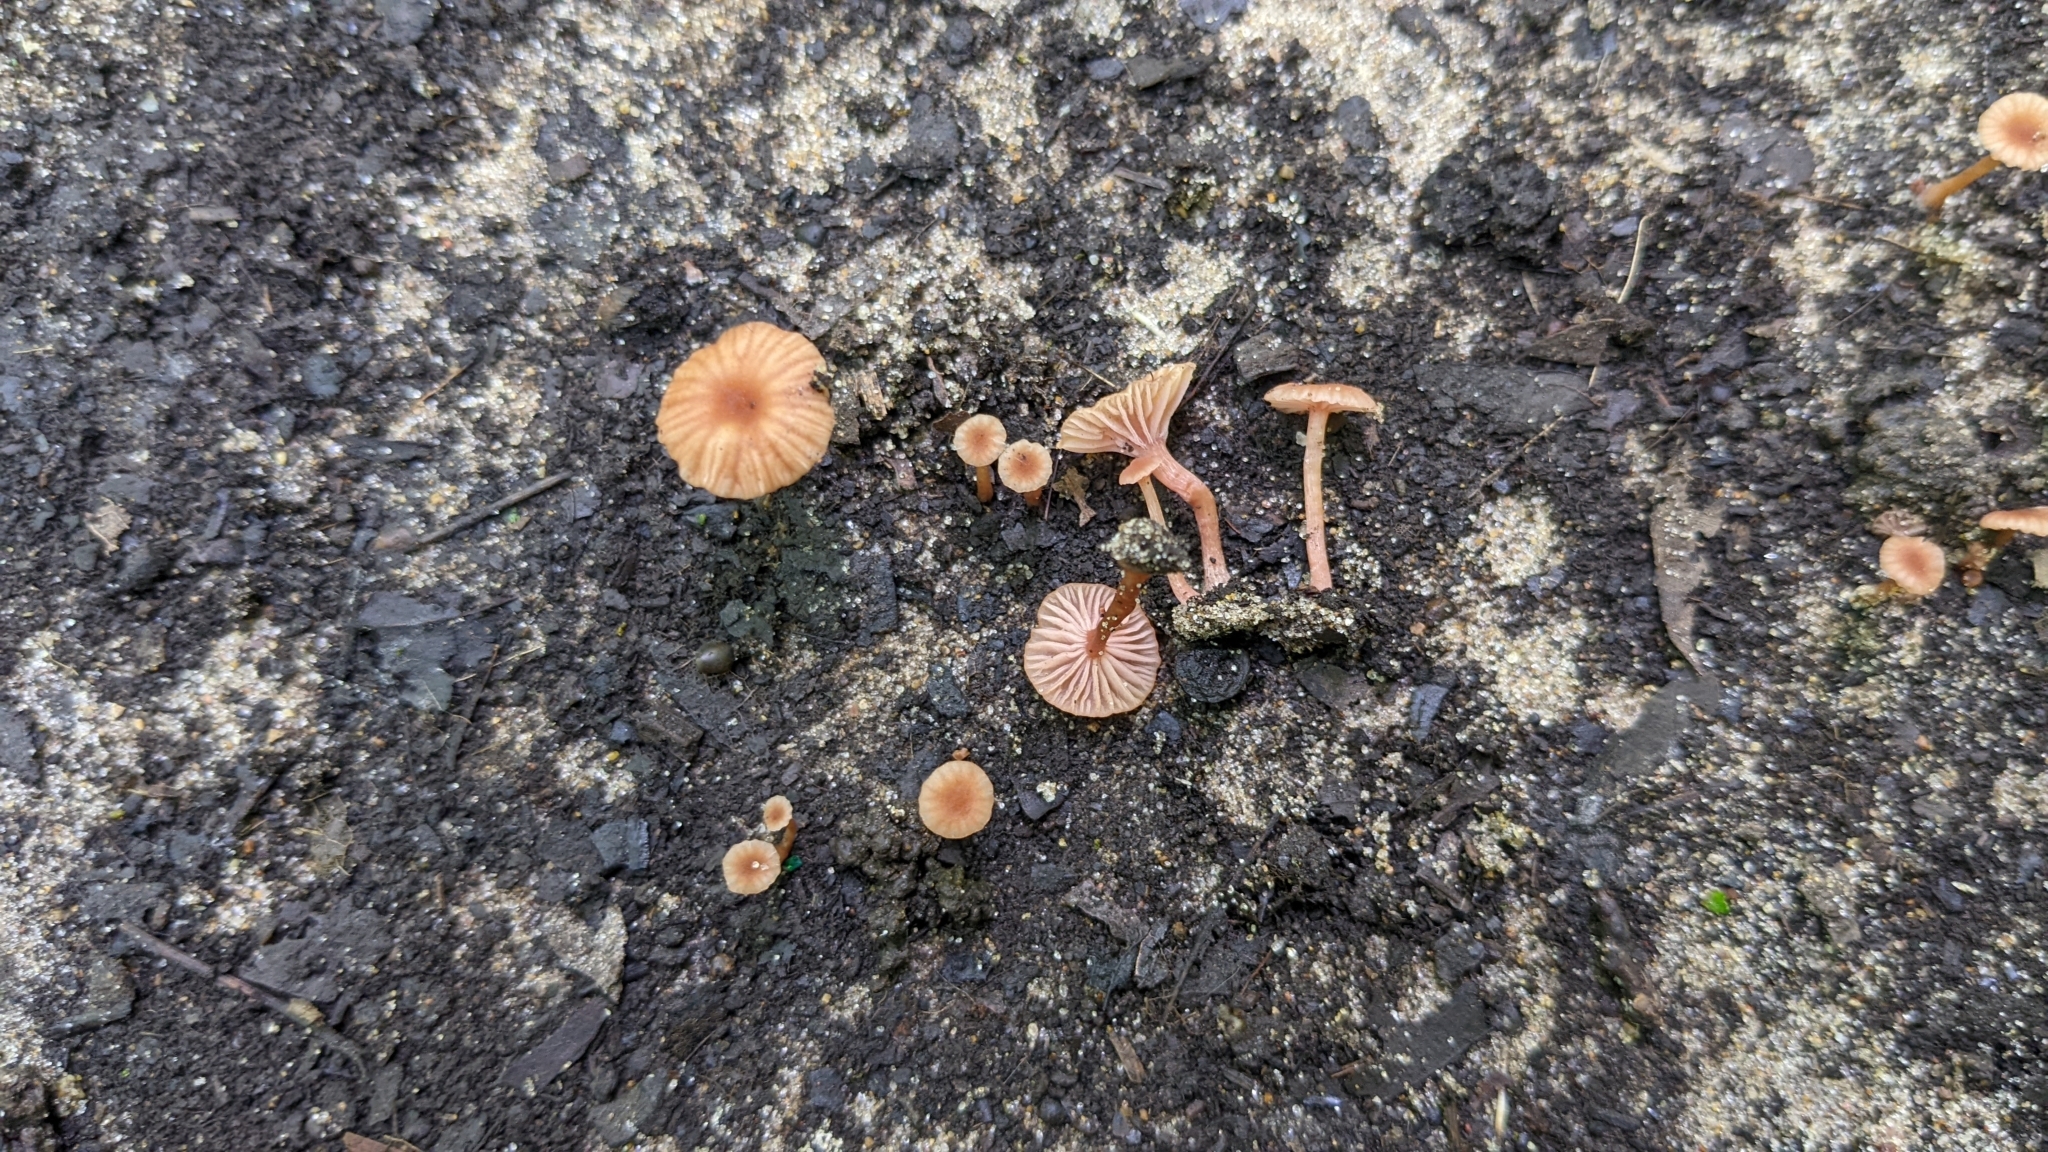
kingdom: Fungi
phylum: Basidiomycota
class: Agaricomycetes
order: Agaricales
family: Hydnangiaceae
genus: Laccaria
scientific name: Laccaria laccata
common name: Deceiver
